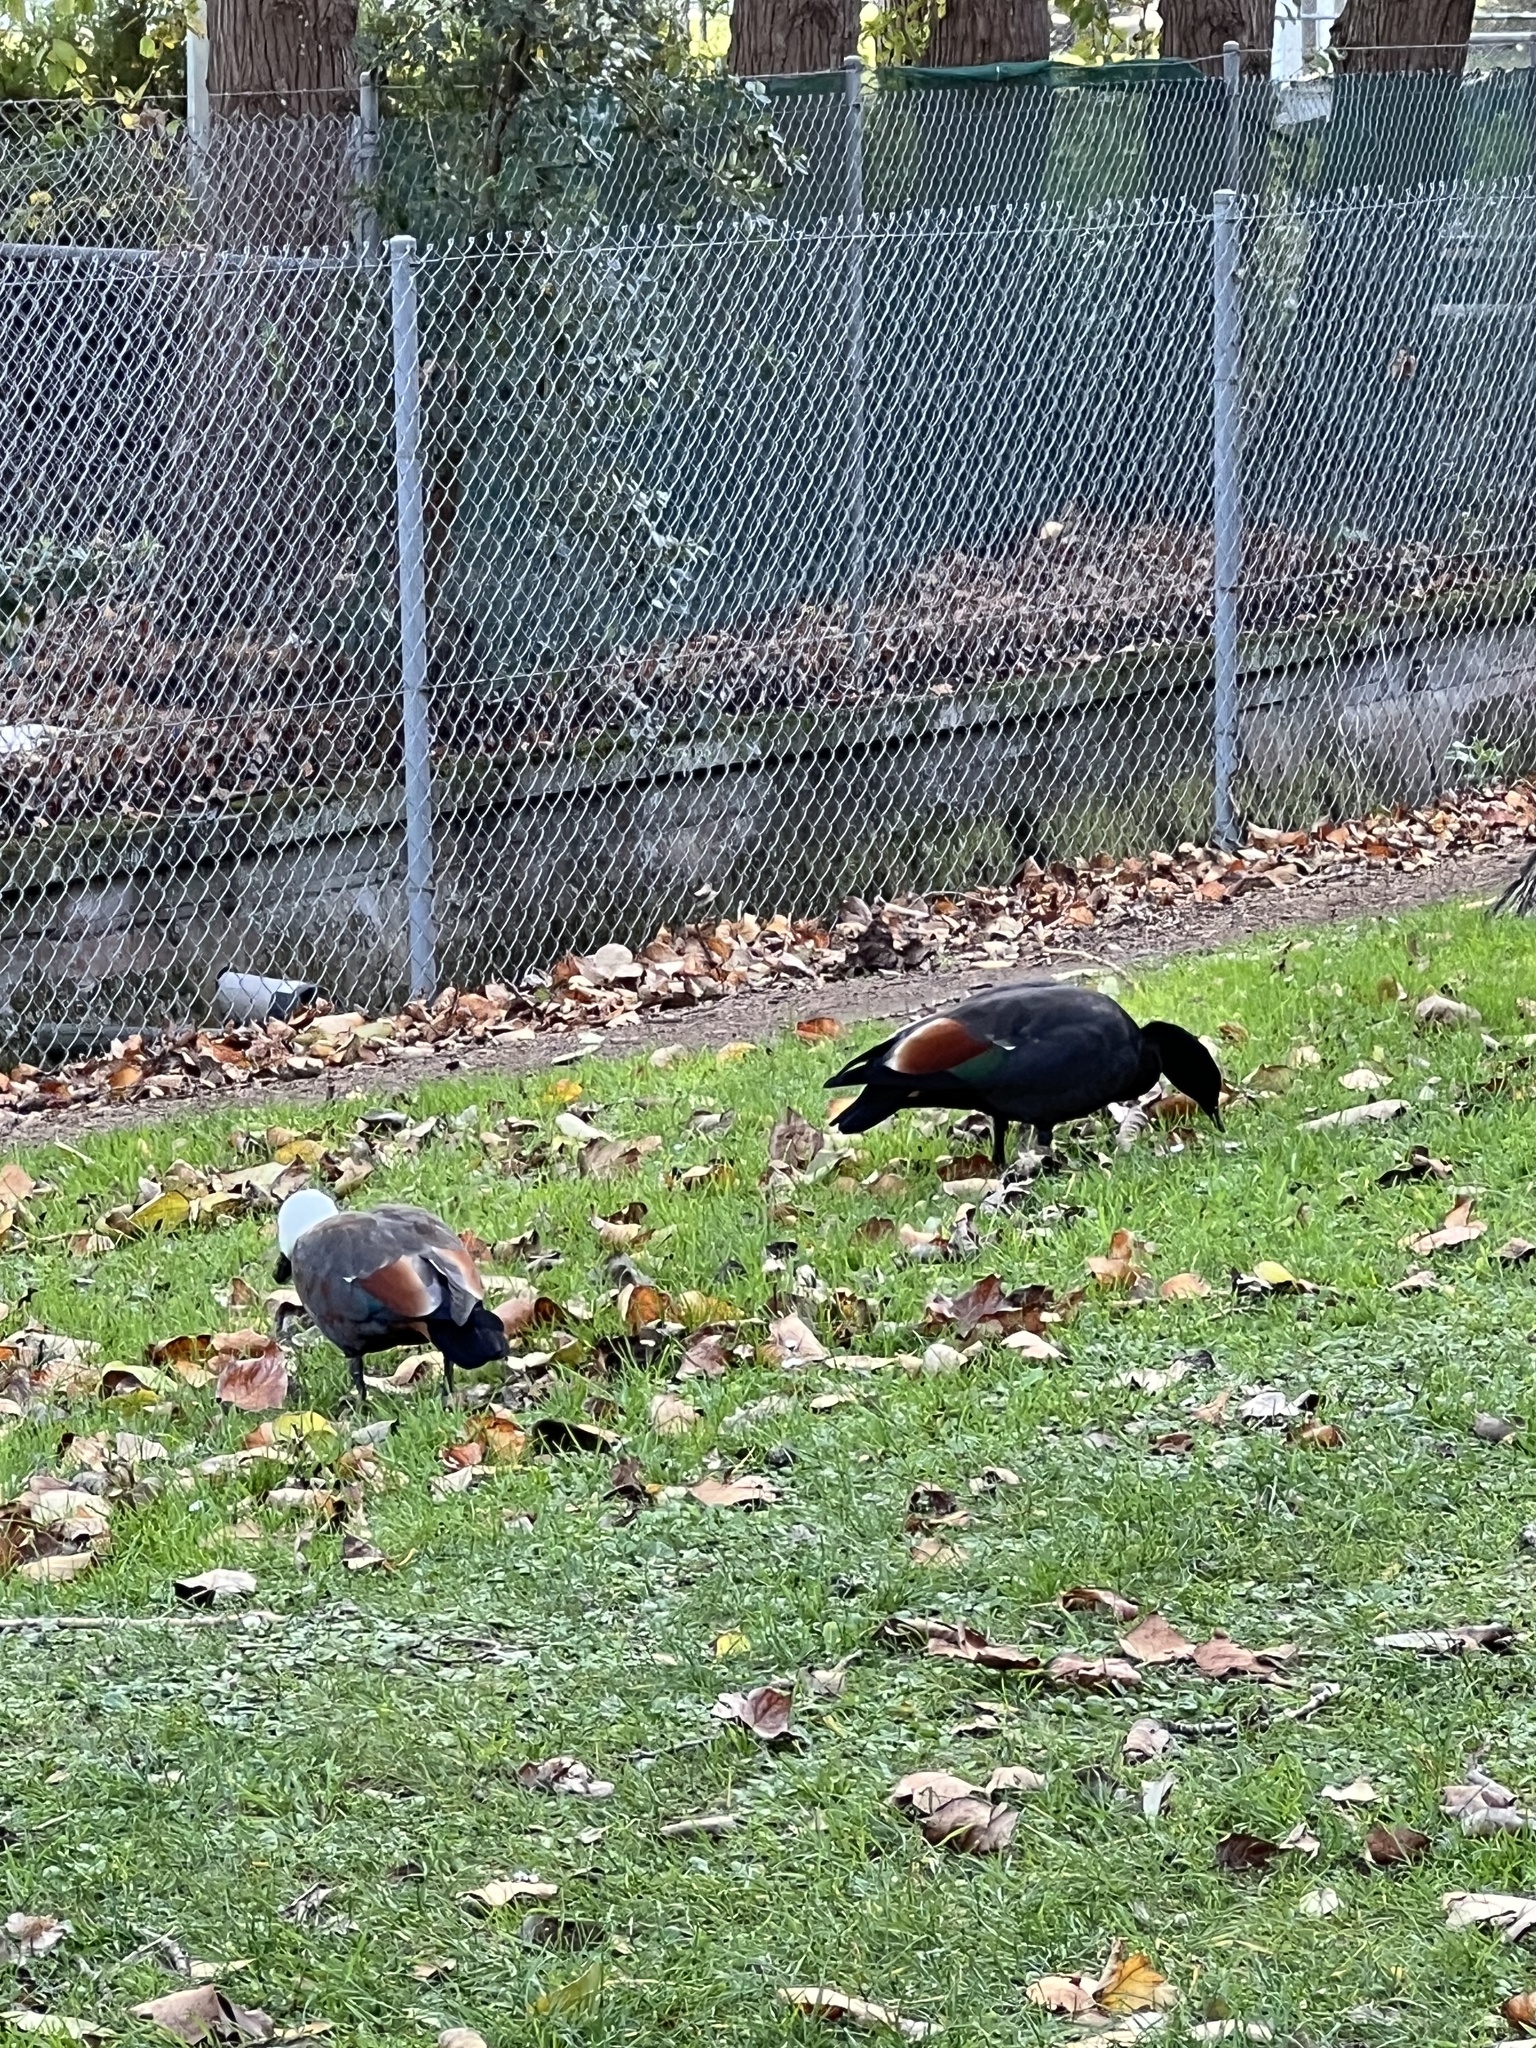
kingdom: Animalia
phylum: Chordata
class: Aves
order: Anseriformes
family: Anatidae
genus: Tadorna
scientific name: Tadorna variegata
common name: Paradise shelduck
